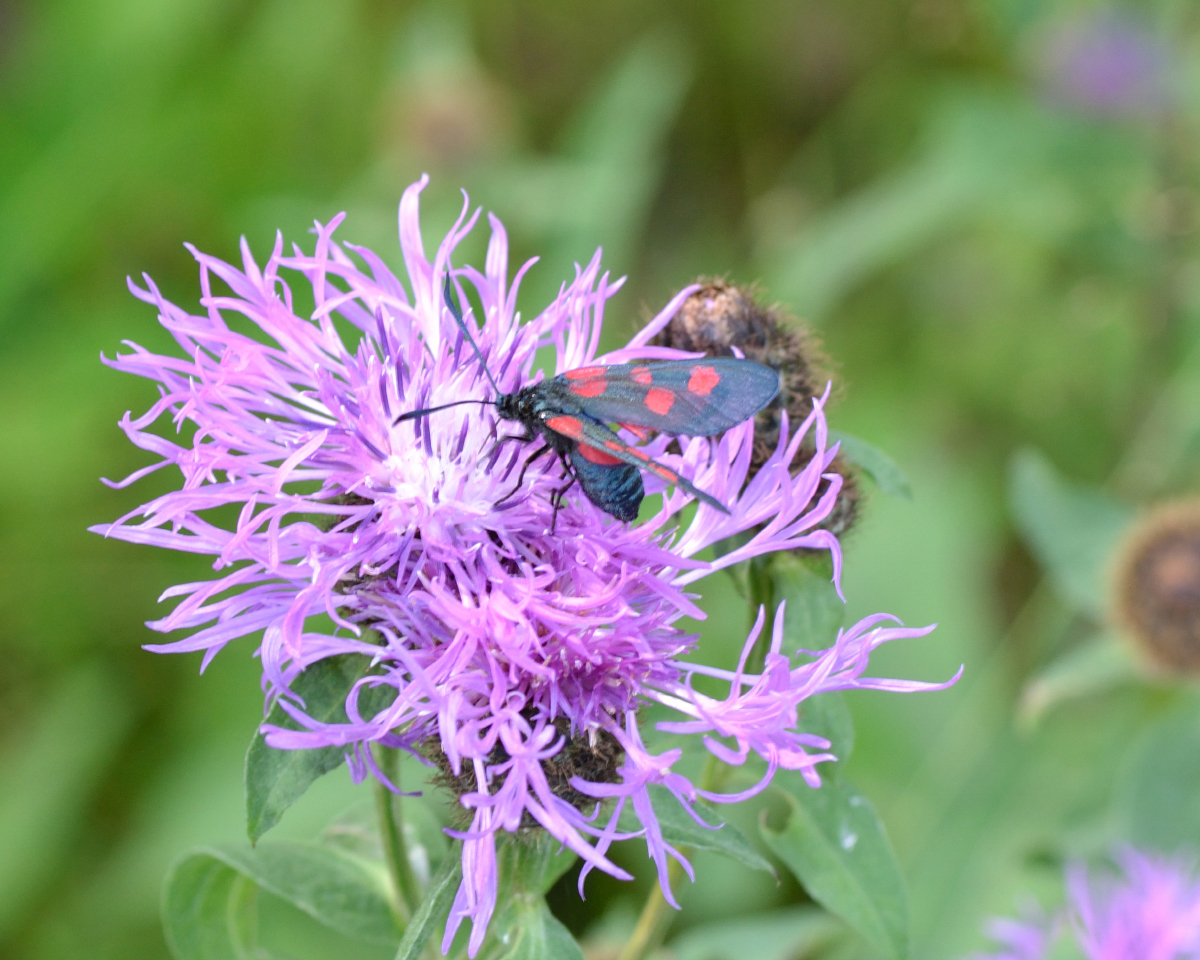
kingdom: Animalia
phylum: Arthropoda
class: Insecta
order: Lepidoptera
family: Zygaenidae
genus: Zygaena
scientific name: Zygaena lonicerae
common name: Narrow-bordered five-spot burnet
